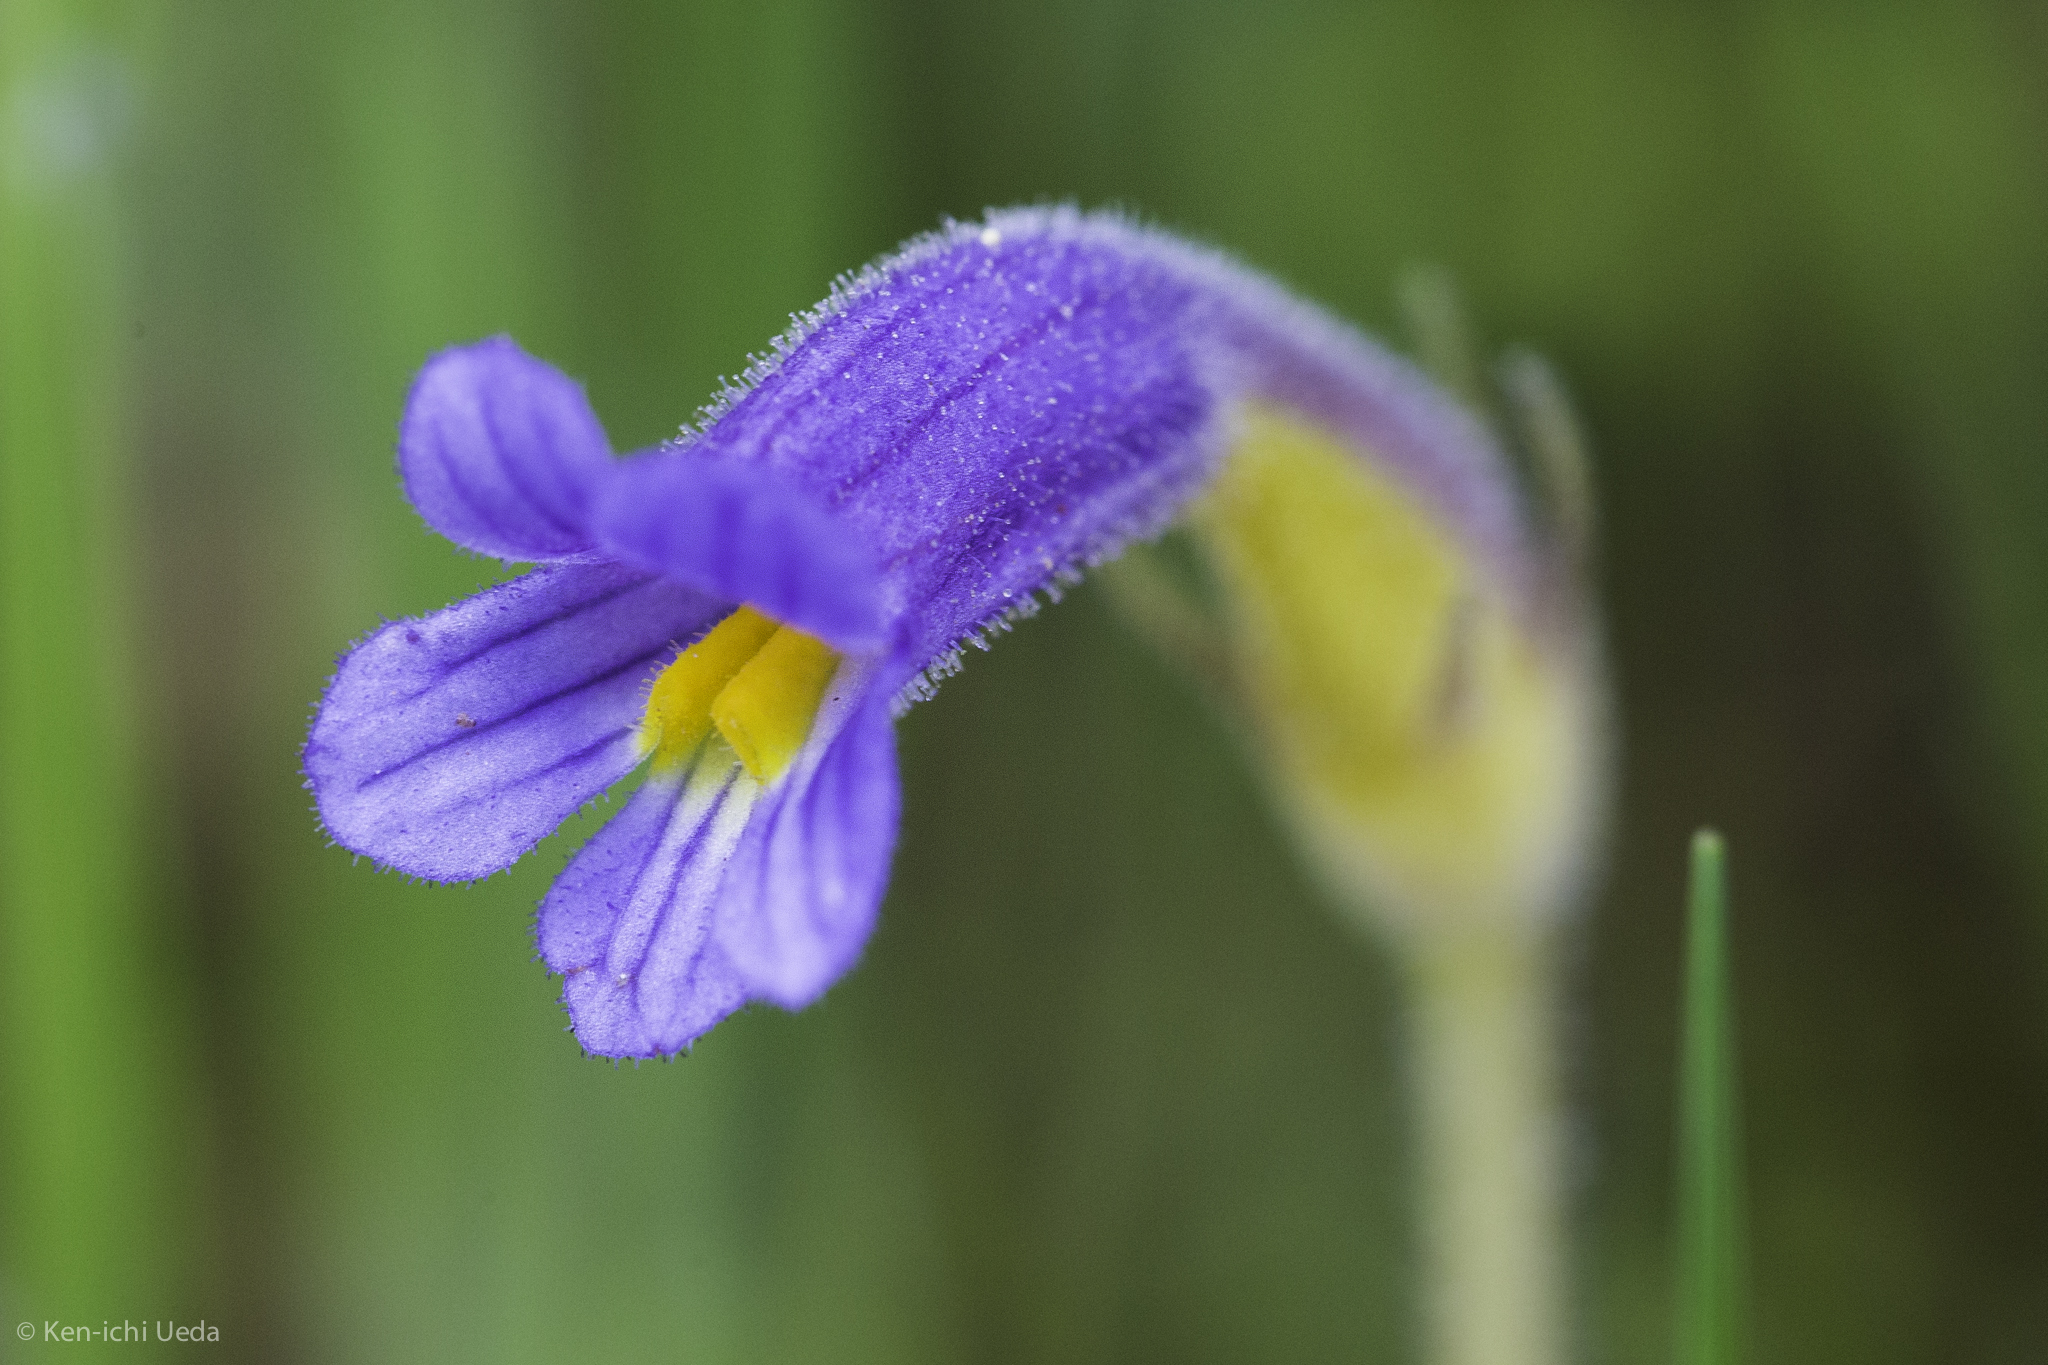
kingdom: Plantae
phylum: Tracheophyta
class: Magnoliopsida
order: Lamiales
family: Orobanchaceae
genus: Aphyllon
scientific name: Aphyllon uniflorum
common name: One-flowered broomrape
